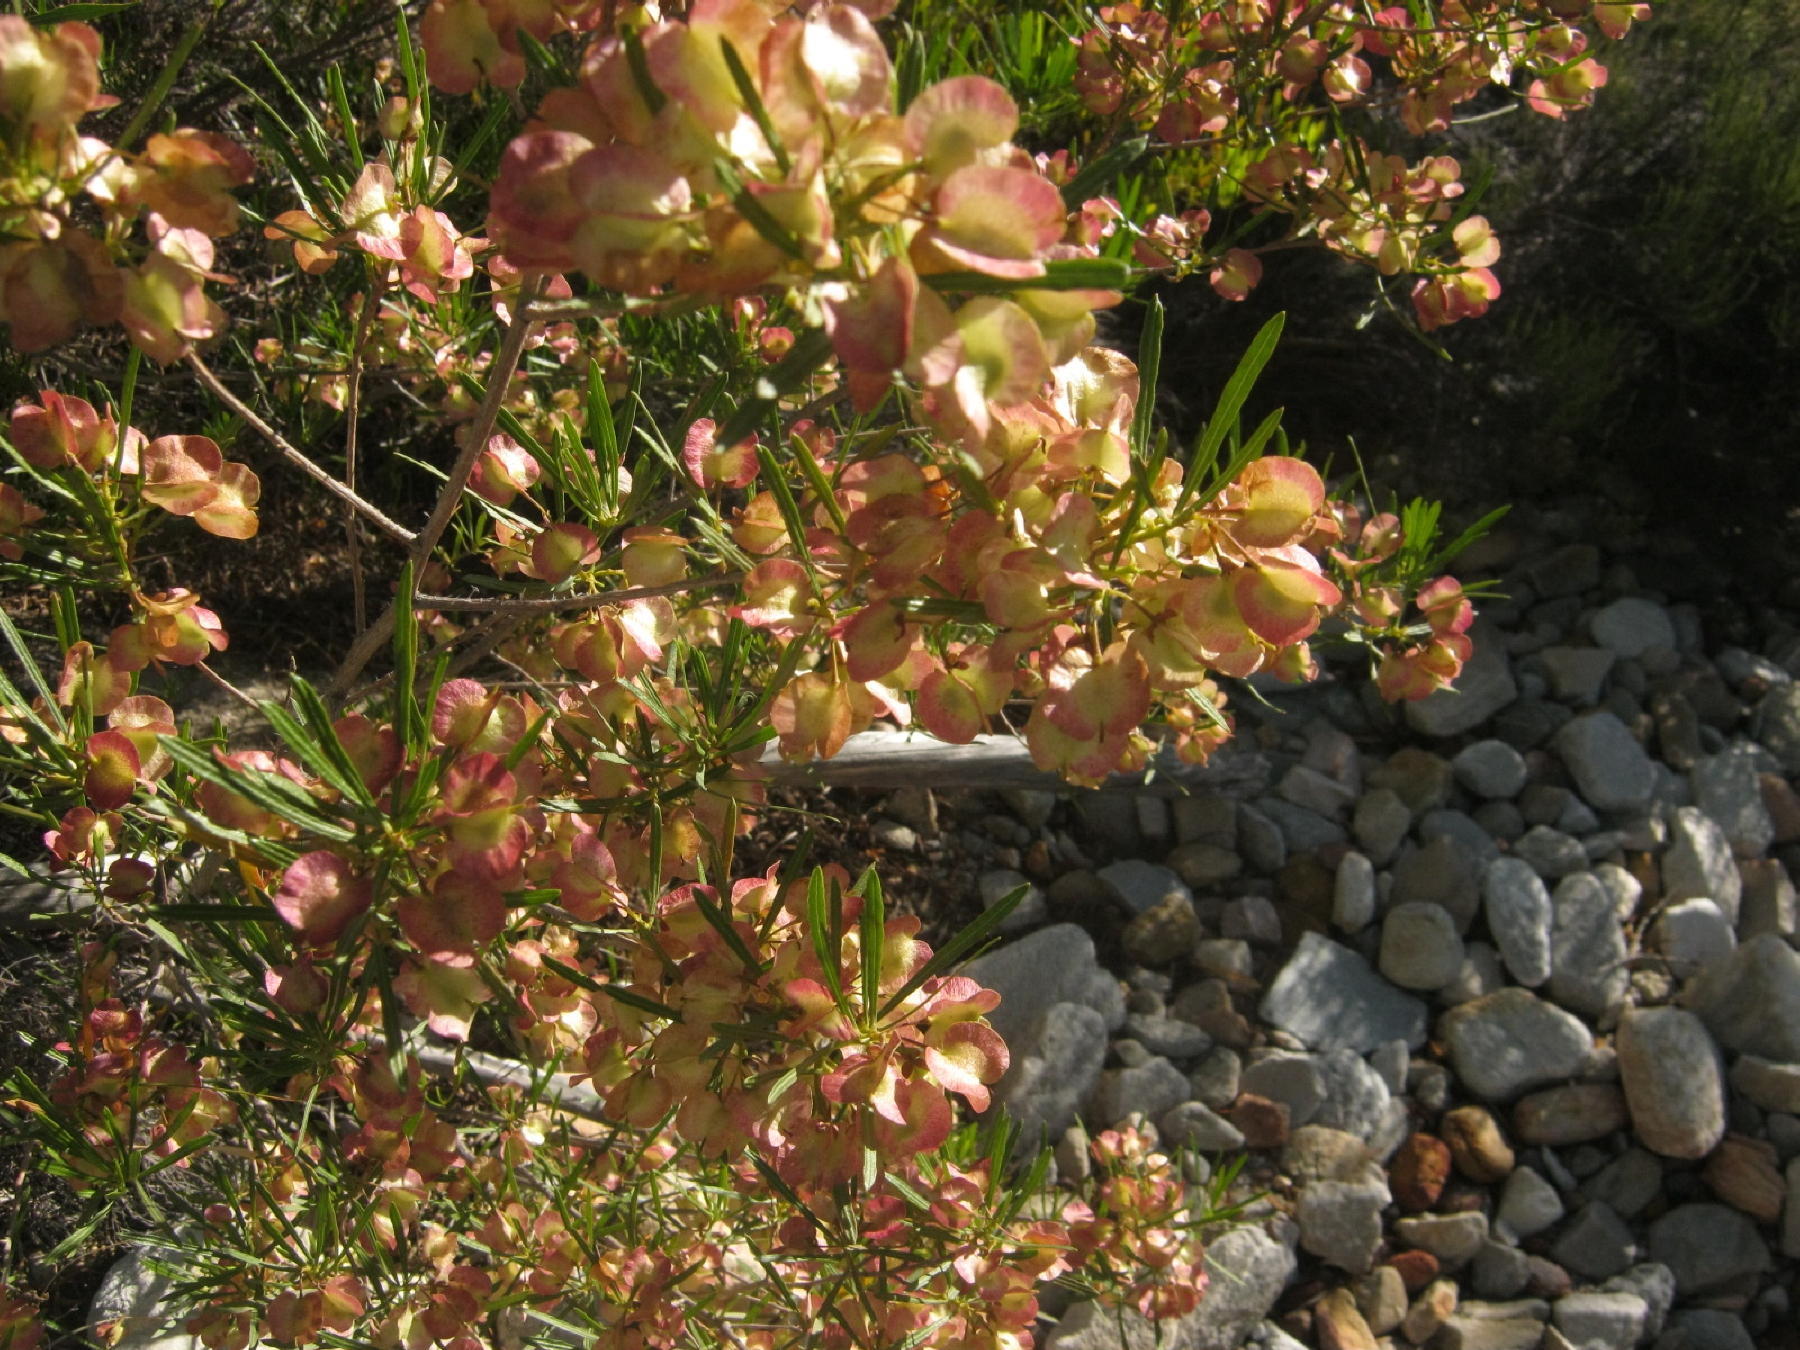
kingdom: Plantae
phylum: Tracheophyta
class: Magnoliopsida
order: Sapindales
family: Sapindaceae
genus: Dodonaea
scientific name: Dodonaea viscosa
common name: Hopbush
